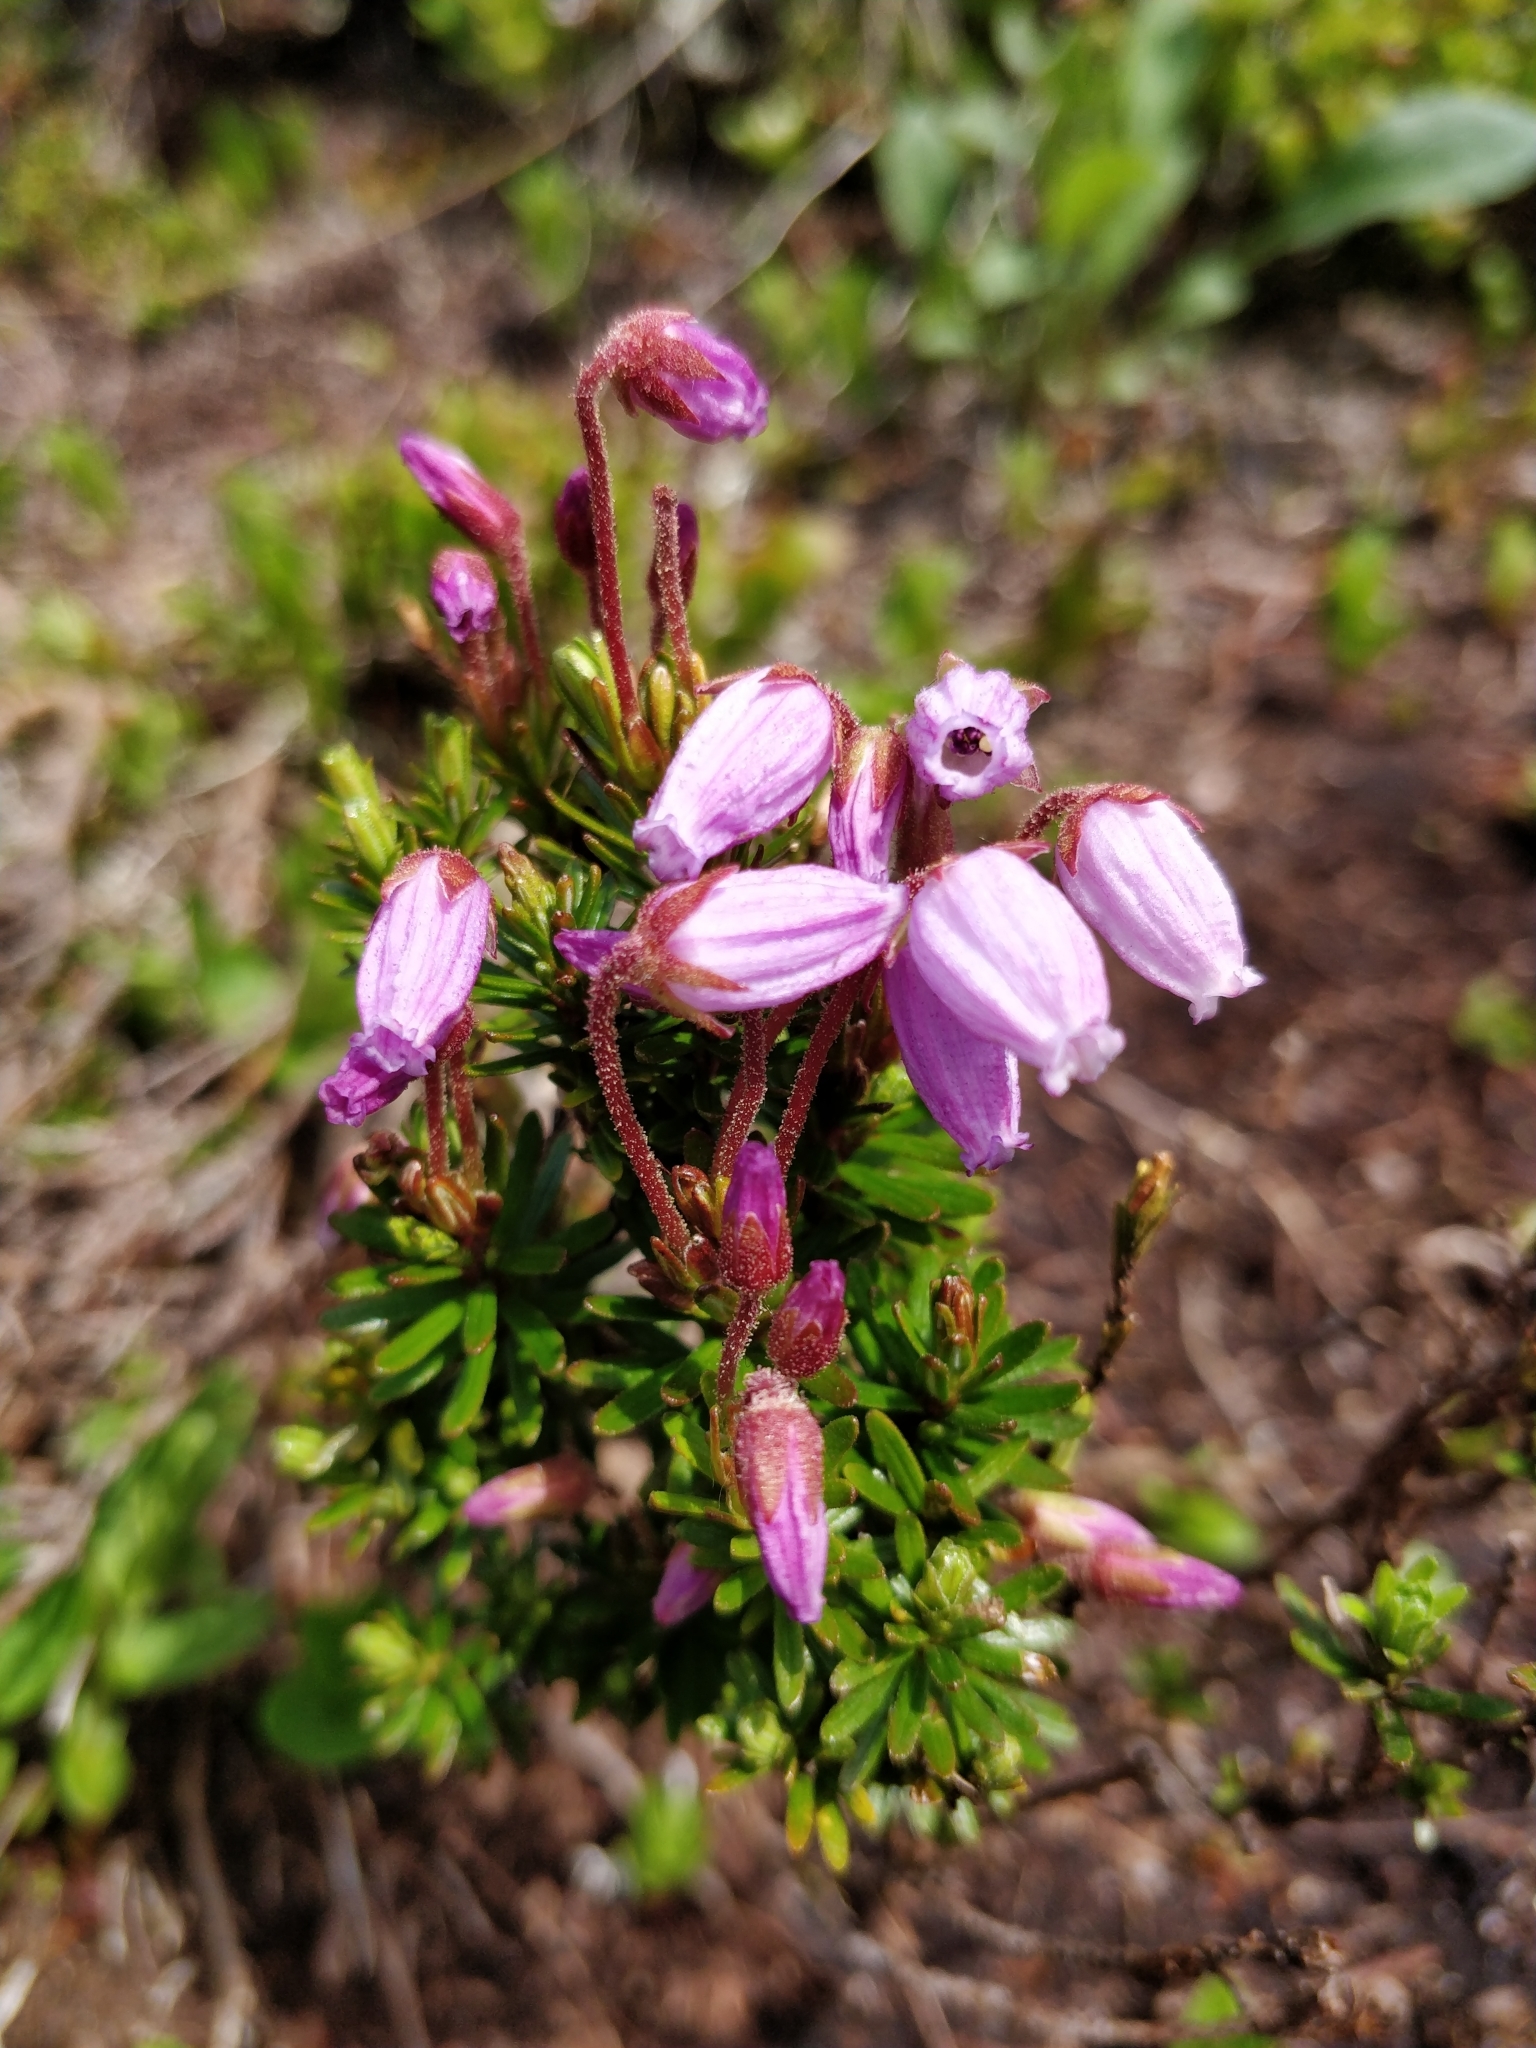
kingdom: Plantae
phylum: Tracheophyta
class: Magnoliopsida
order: Ericales
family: Ericaceae
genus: Phyllodoce
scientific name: Phyllodoce caerulea
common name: Blue heath
